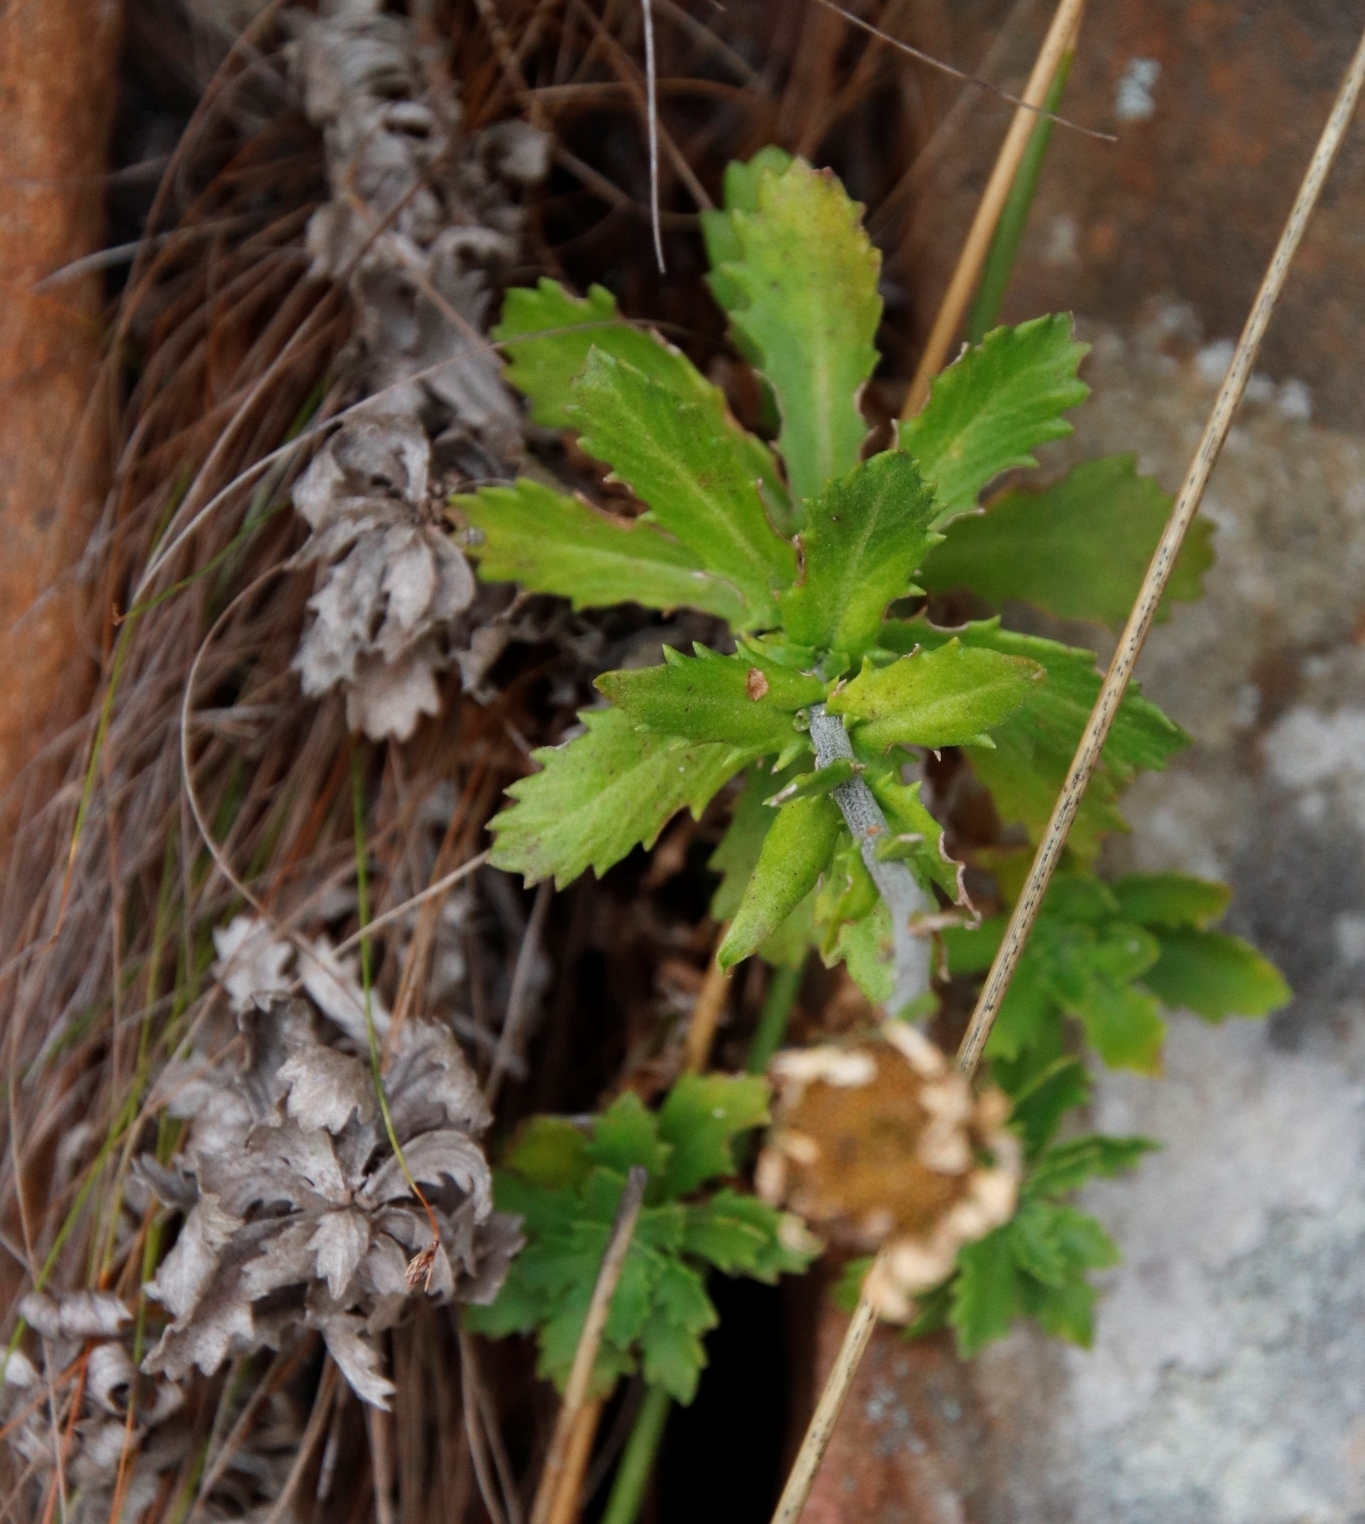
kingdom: Plantae
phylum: Tracheophyta
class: Magnoliopsida
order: Asterales
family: Asteraceae
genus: Osmitopsis
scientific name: Osmitopsis dentata
